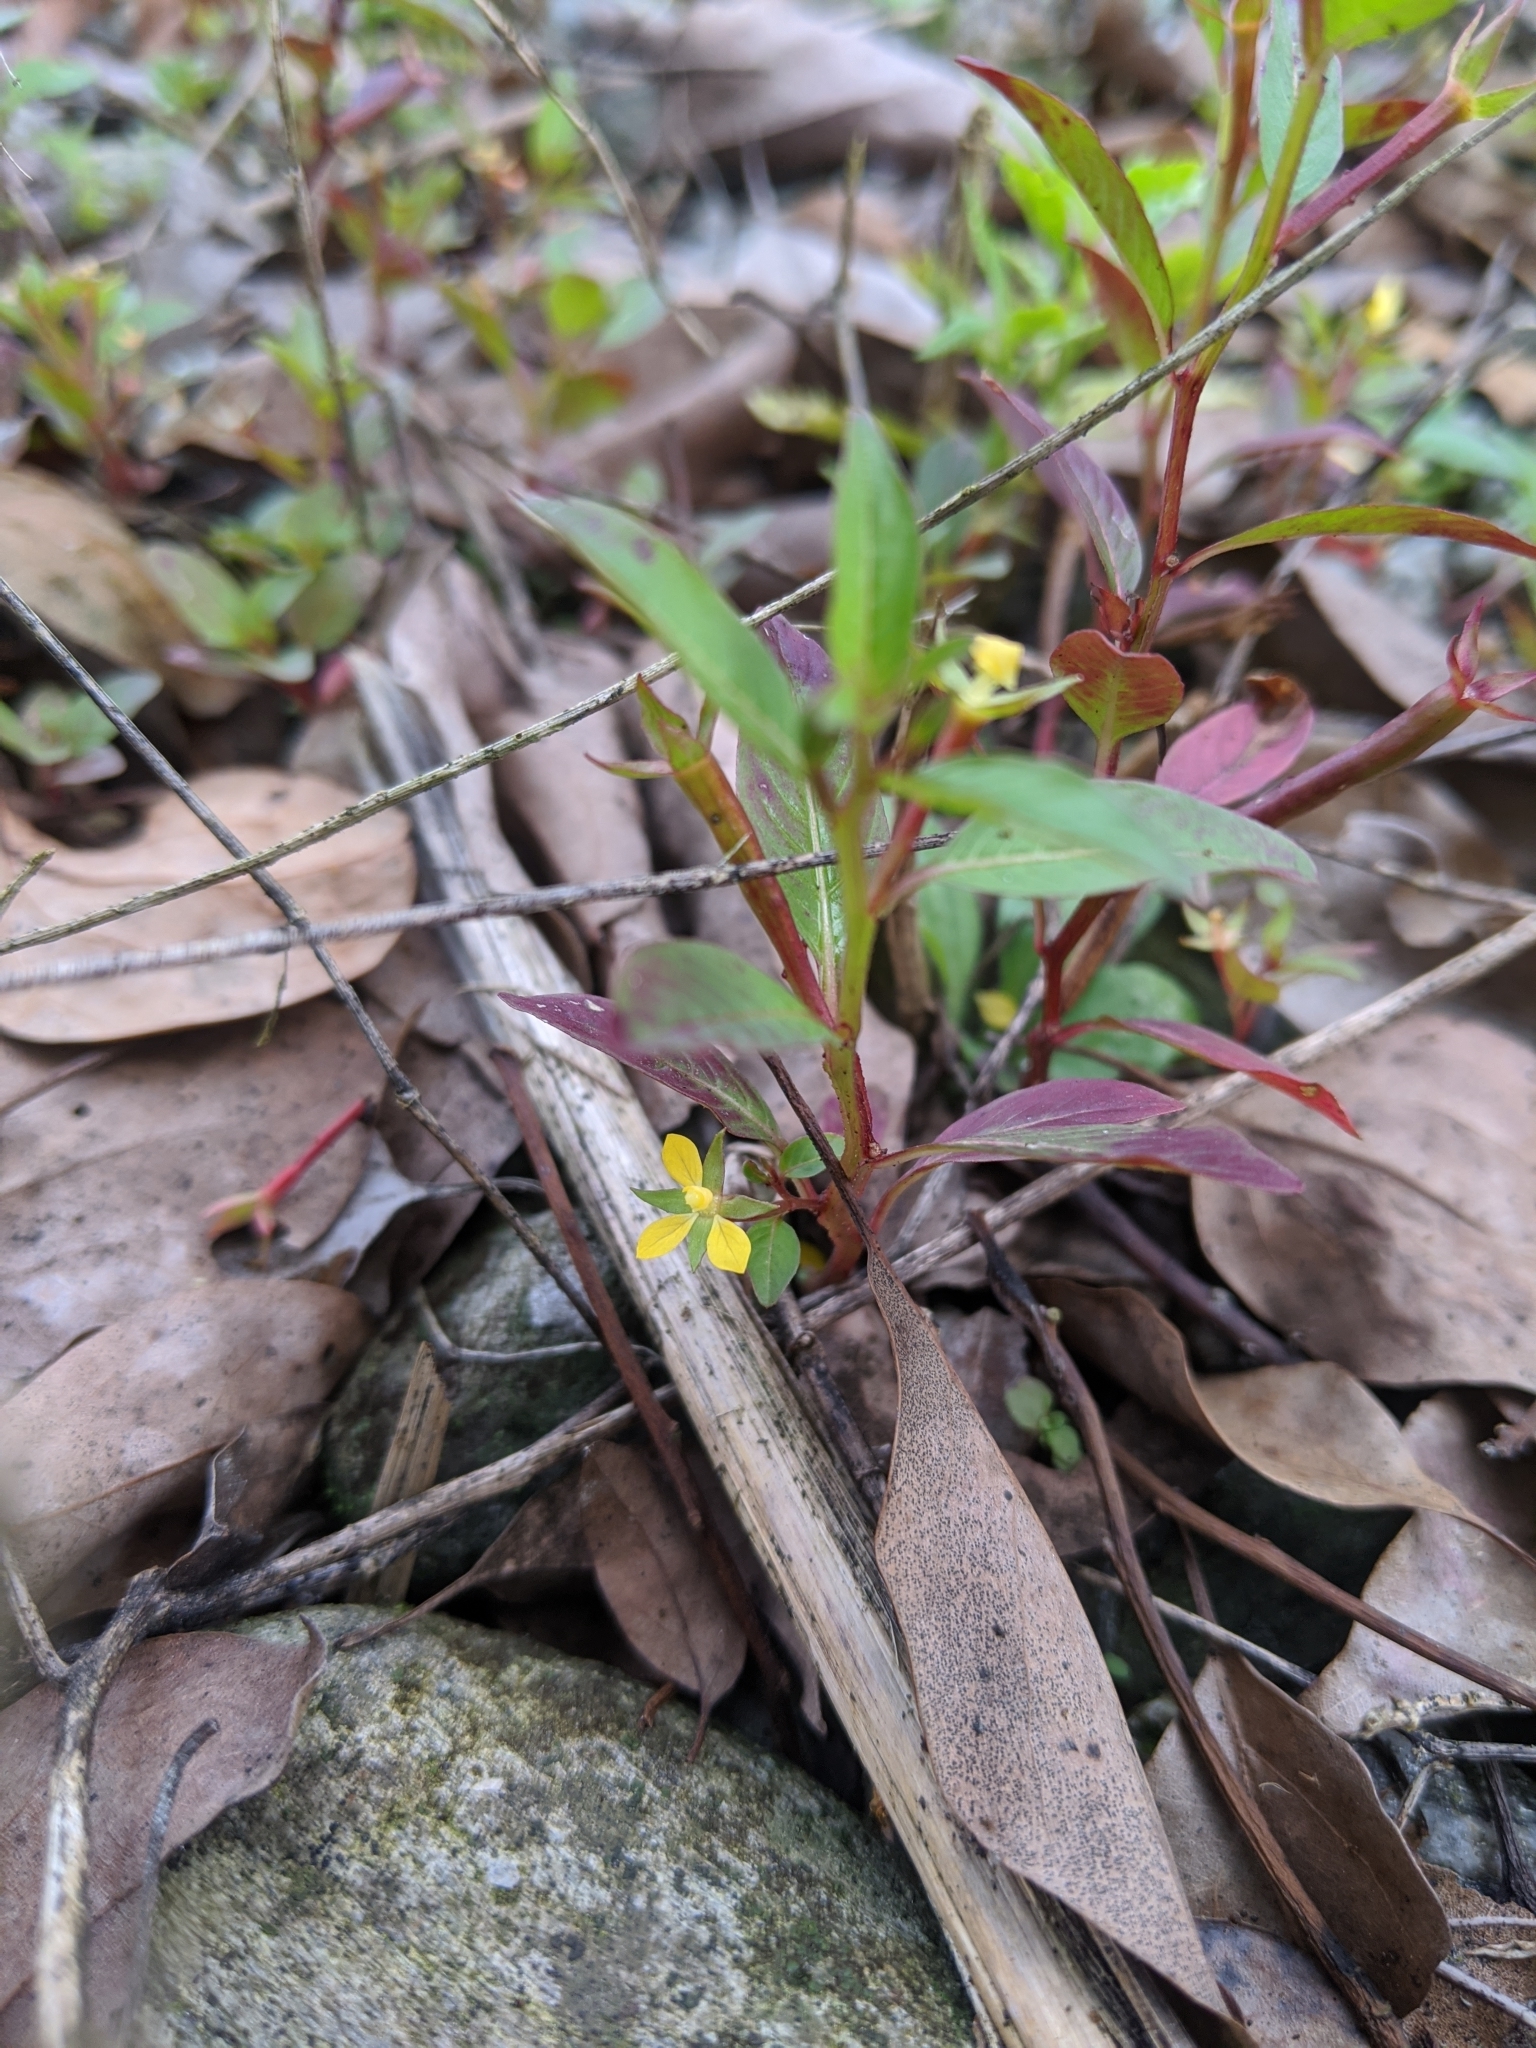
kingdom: Plantae
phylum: Tracheophyta
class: Magnoliopsida
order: Myrtales
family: Onagraceae
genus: Ludwigia
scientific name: Ludwigia hyssopifolia
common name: Linear leaf water primrose
